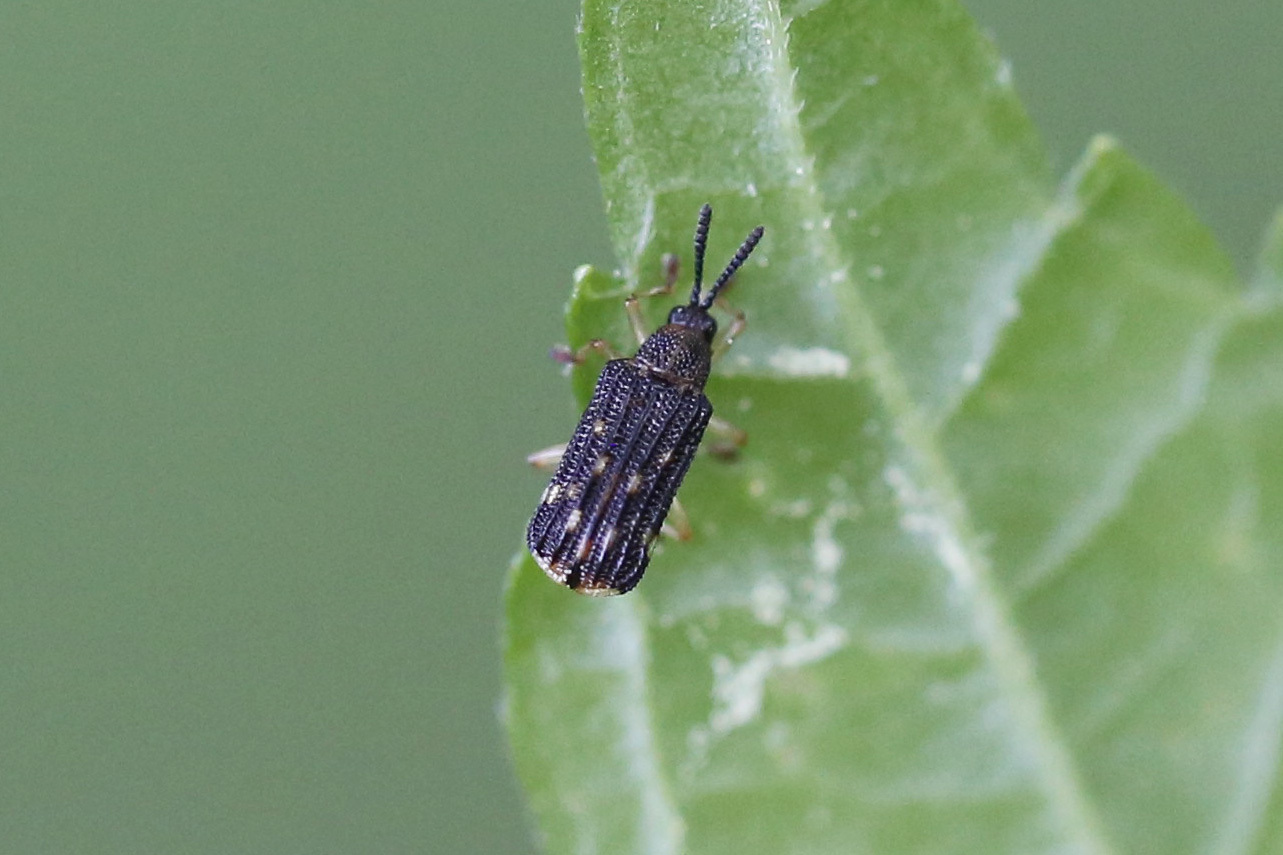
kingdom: Animalia
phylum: Arthropoda
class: Insecta
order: Coleoptera
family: Chrysomelidae
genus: Sumitrosis
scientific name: Sumitrosis inaequalis
